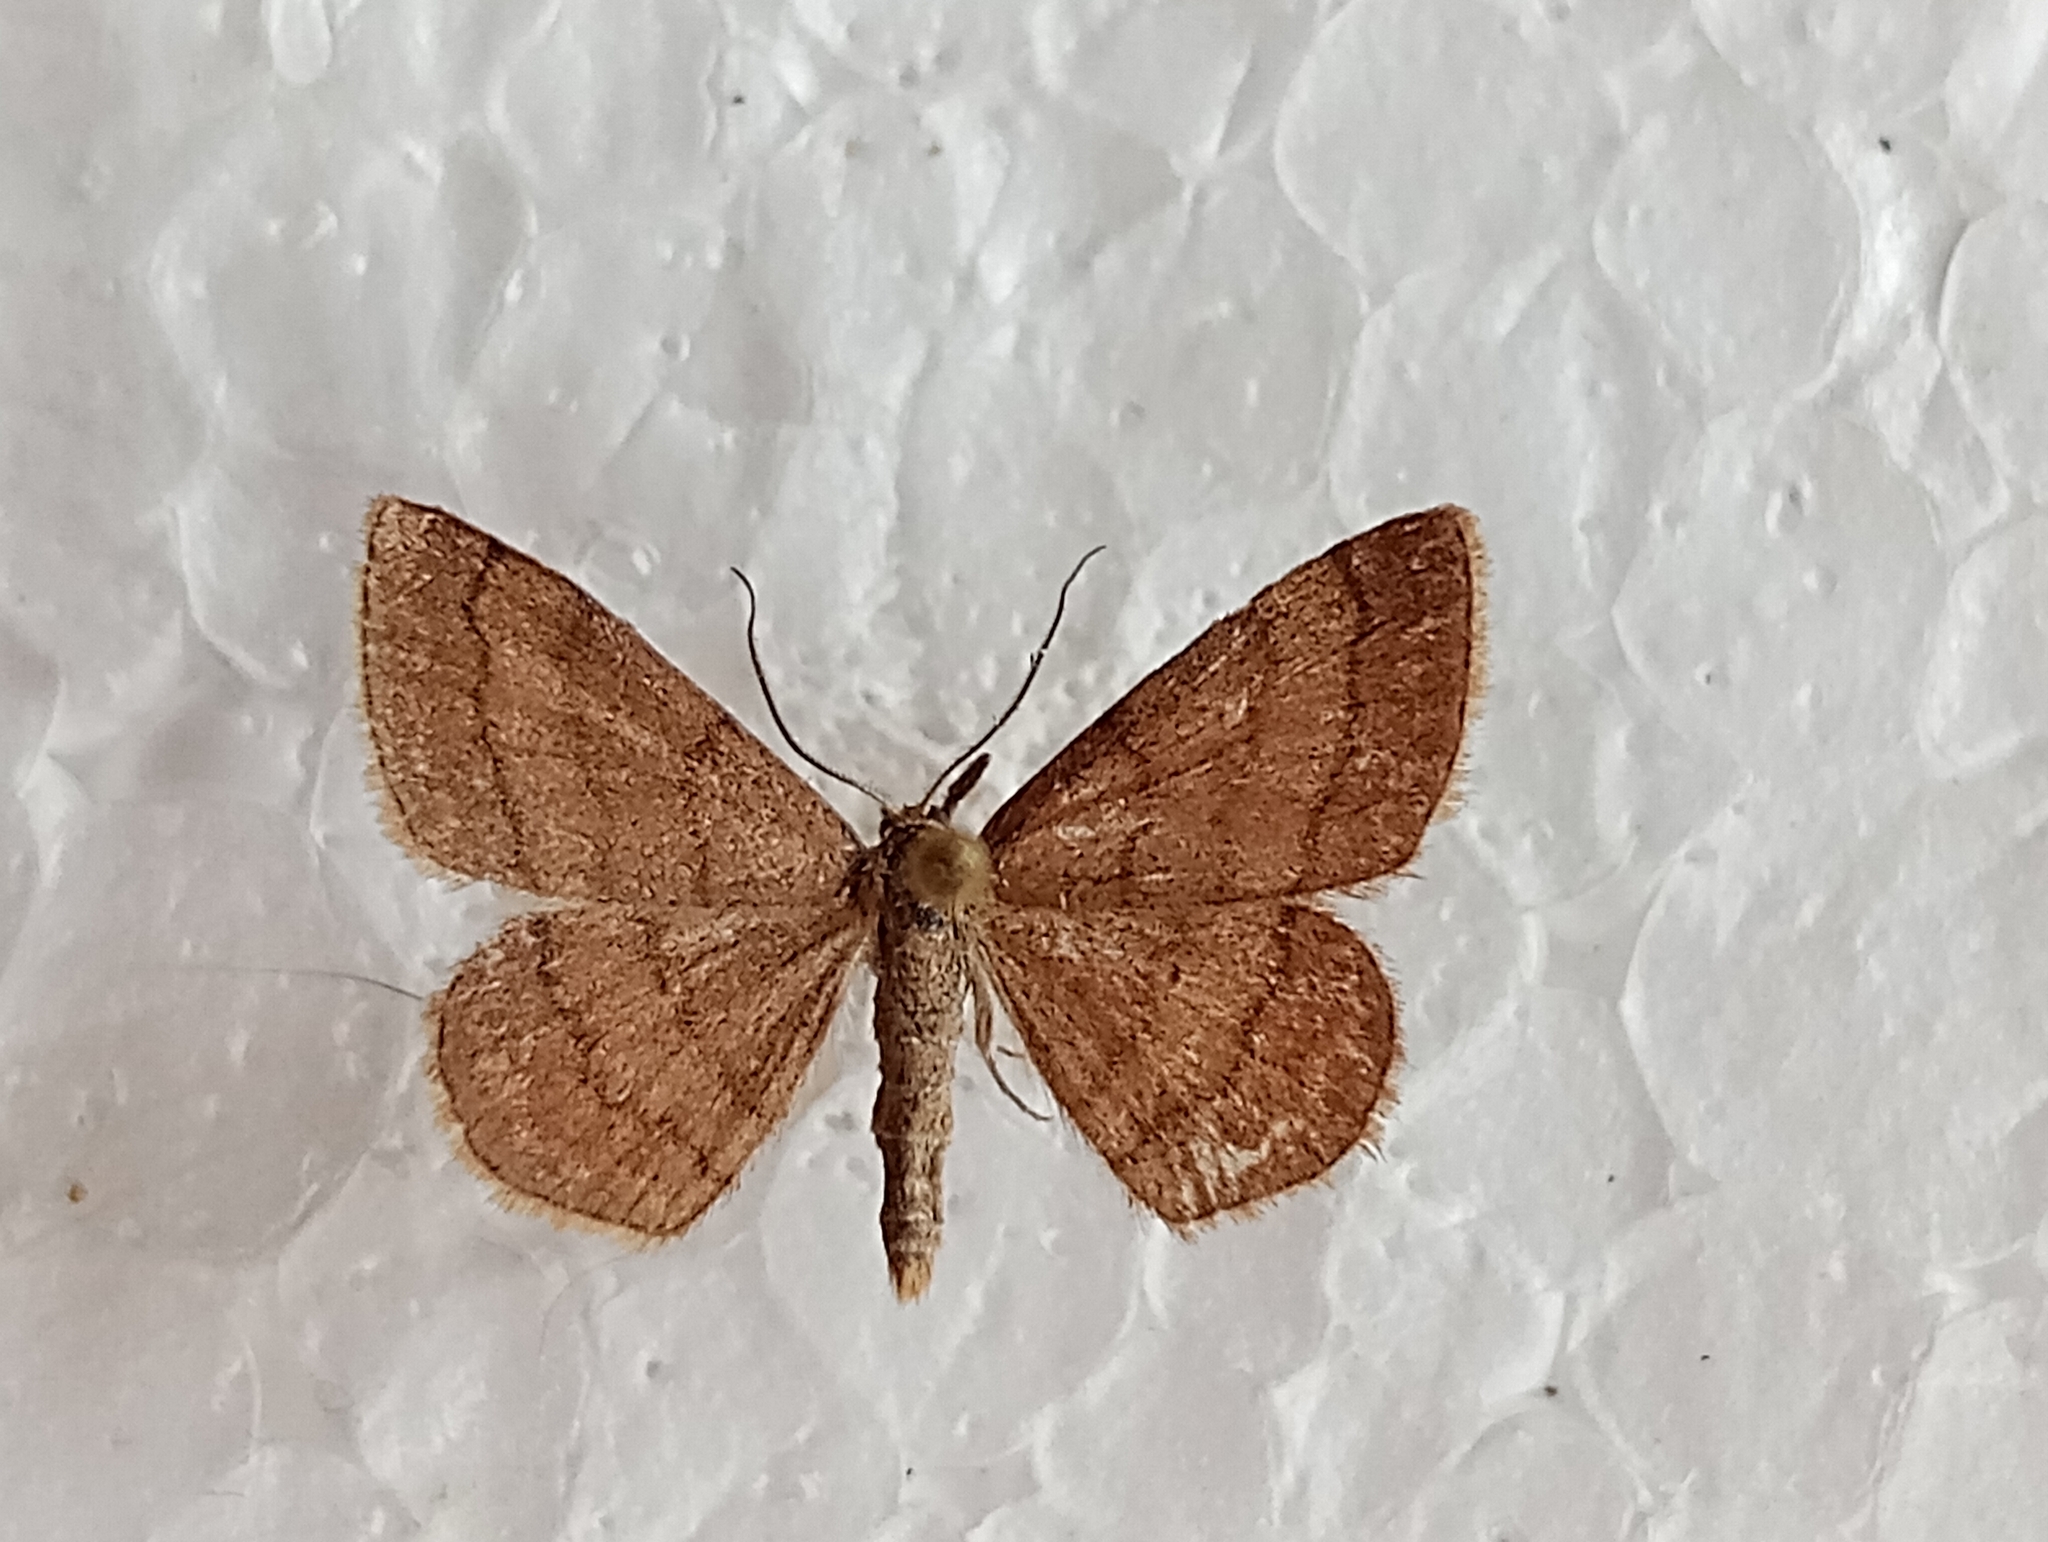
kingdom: Animalia
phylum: Arthropoda
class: Insecta
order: Lepidoptera
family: Geometridae
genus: Scopula
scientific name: Scopula rubiginata
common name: Tawny wave
